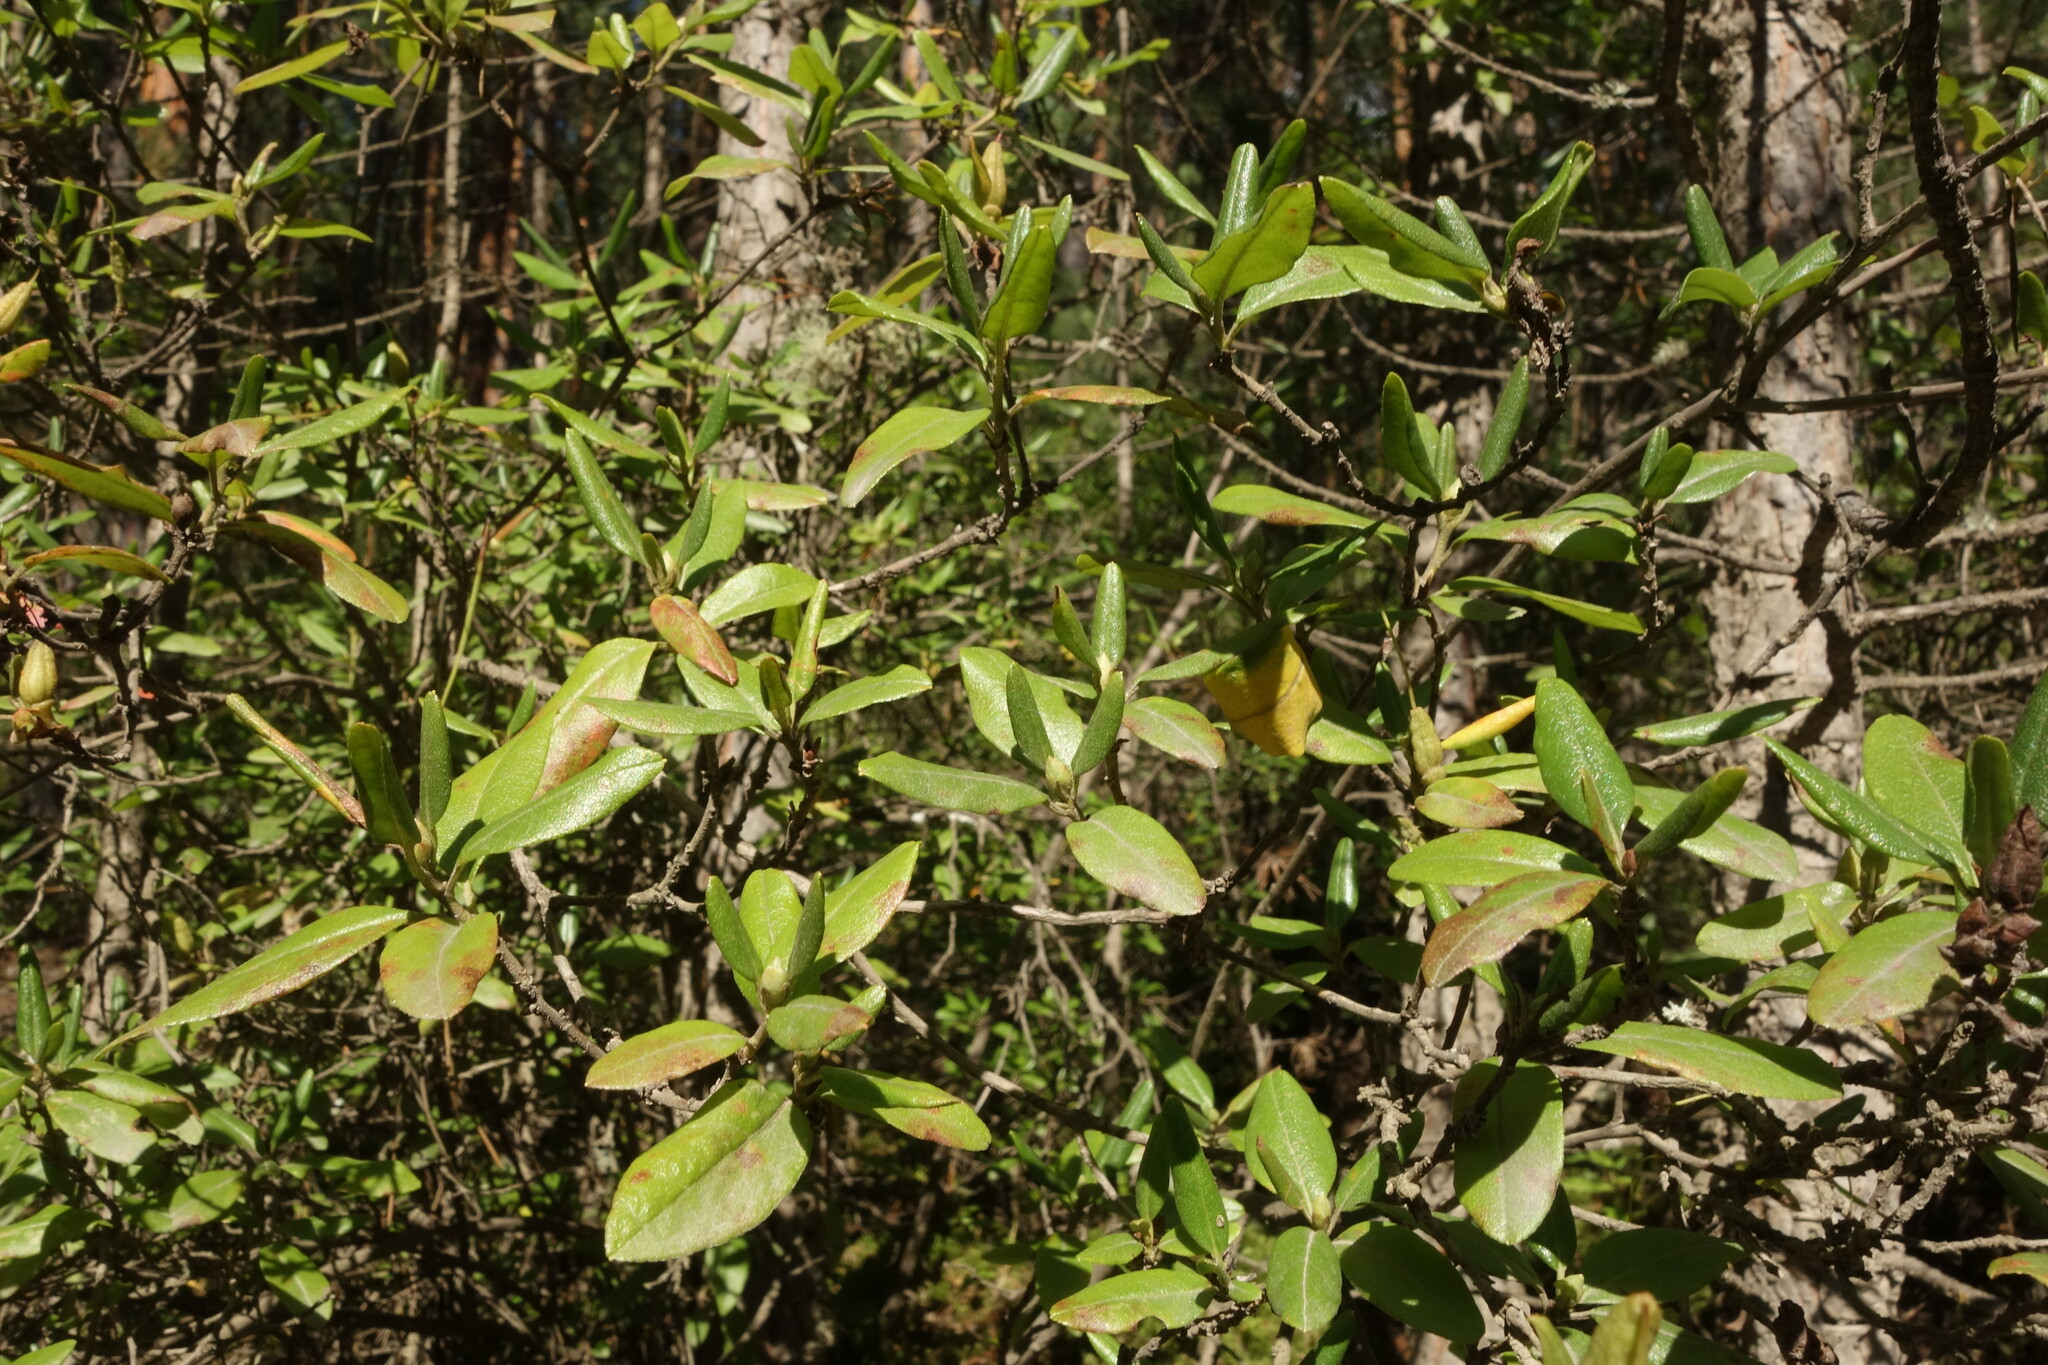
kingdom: Plantae
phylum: Tracheophyta
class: Magnoliopsida
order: Ericales
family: Ericaceae
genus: Rhododendron
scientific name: Rhododendron dauricum
